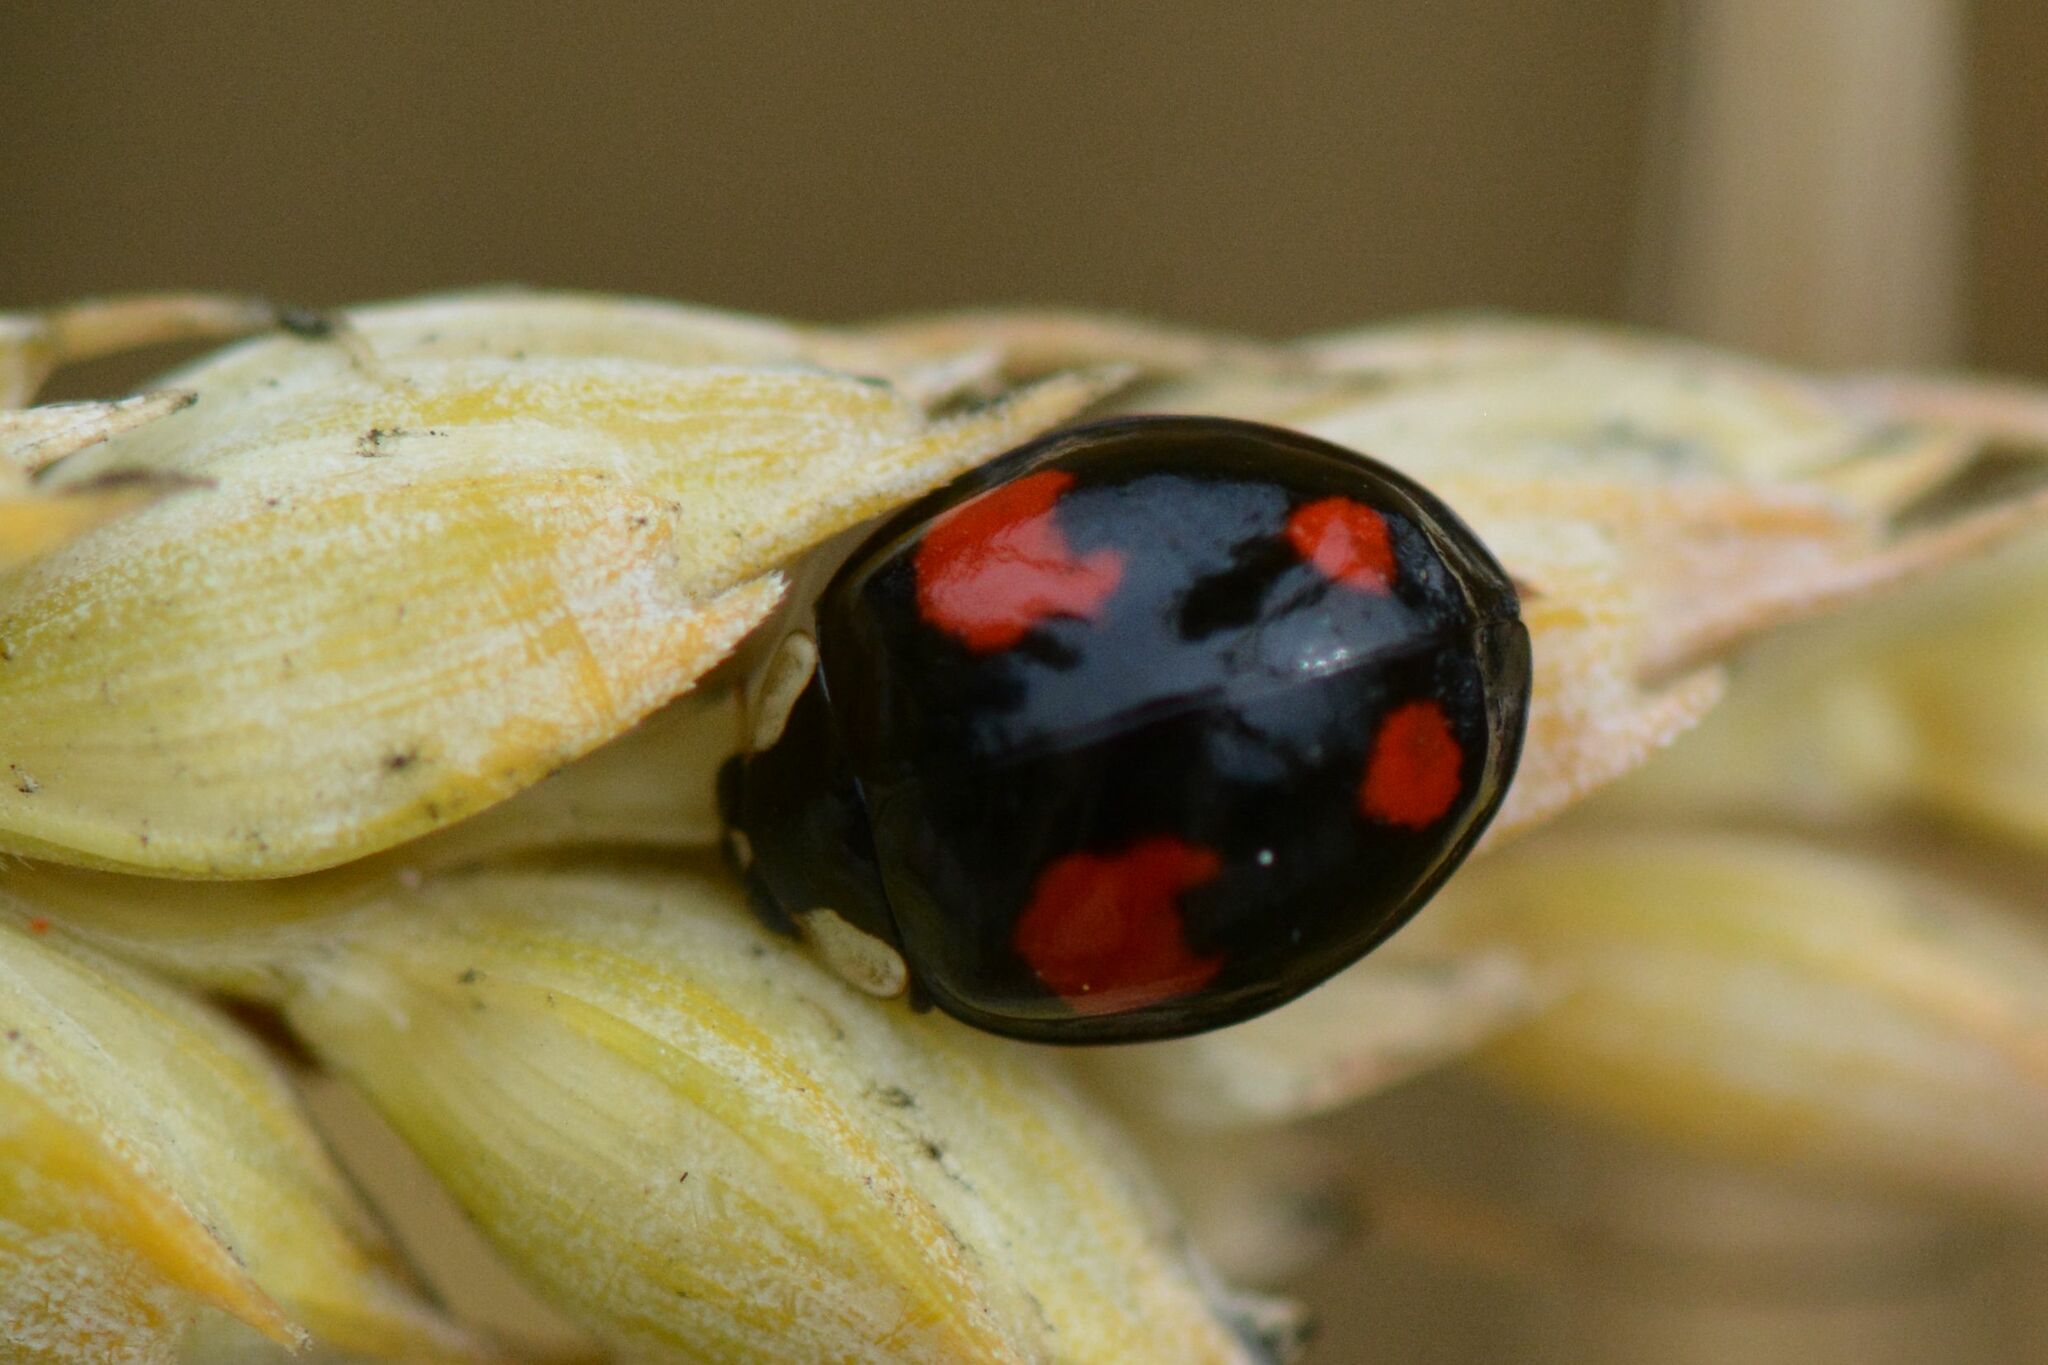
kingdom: Animalia
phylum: Arthropoda
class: Insecta
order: Coleoptera
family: Coccinellidae
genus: Harmonia
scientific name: Harmonia axyridis
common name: Harlequin ladybird
